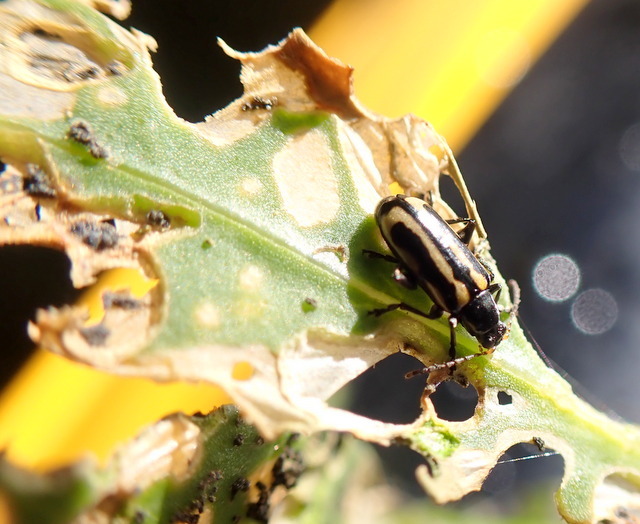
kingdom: Animalia
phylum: Arthropoda
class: Insecta
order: Coleoptera
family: Chrysomelidae
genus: Agasicles
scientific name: Agasicles hygrophila
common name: Alligatorweed flea beetle
